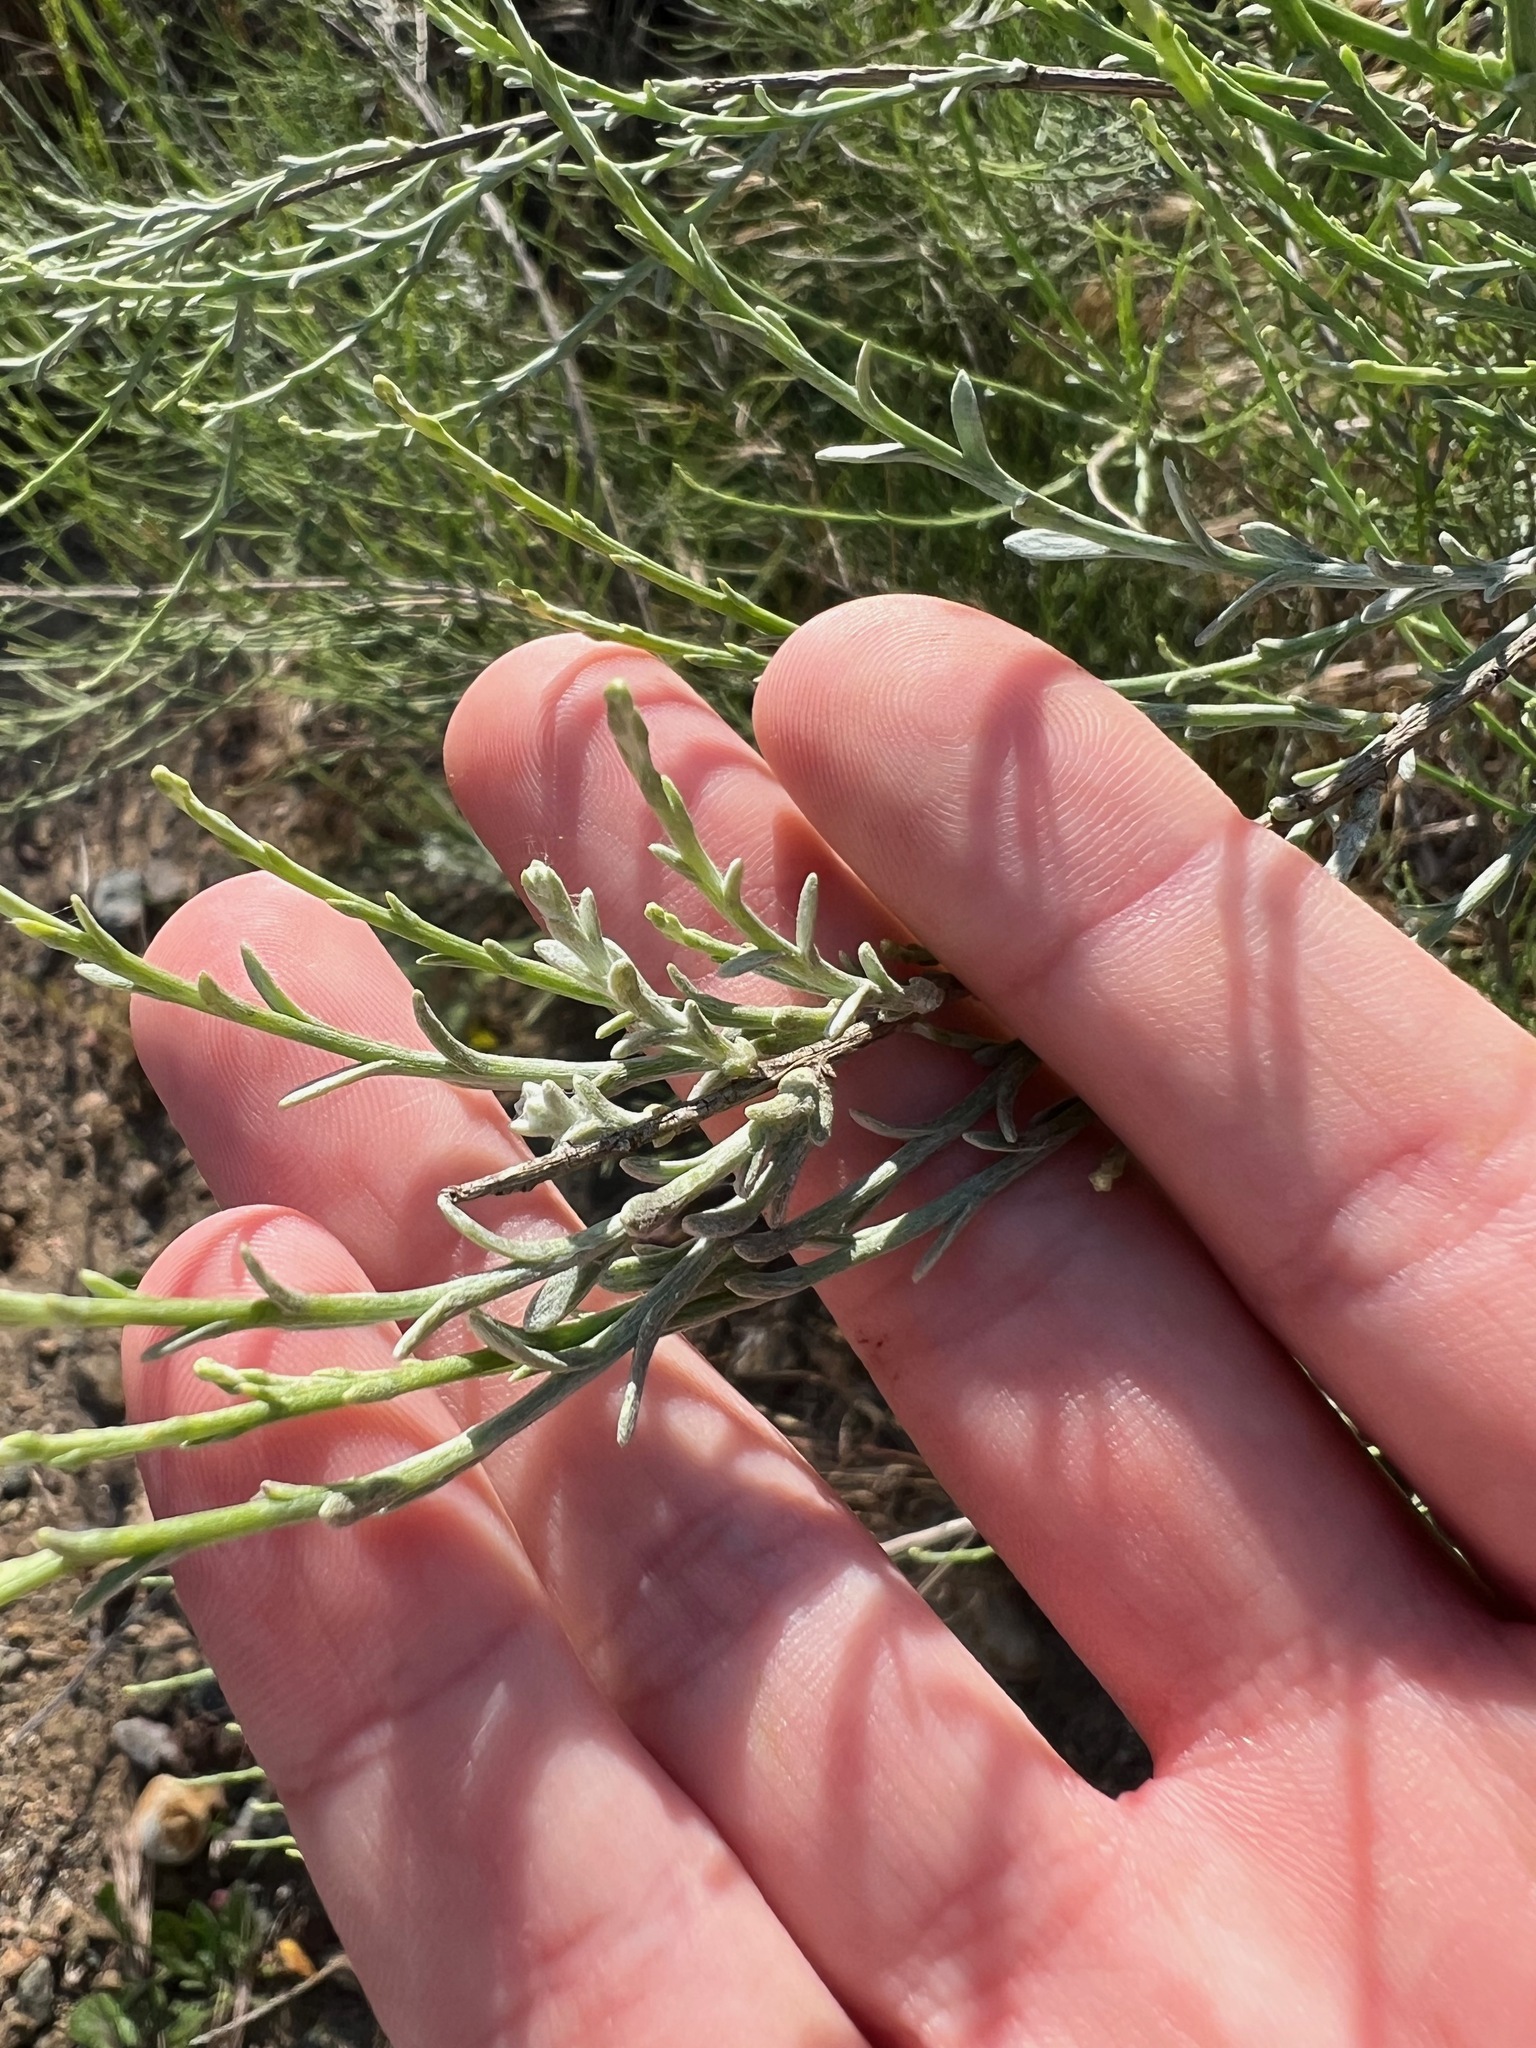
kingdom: Plantae
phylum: Tracheophyta
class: Magnoliopsida
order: Asterales
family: Asteraceae
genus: Lepidospartum
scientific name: Lepidospartum squamatum
